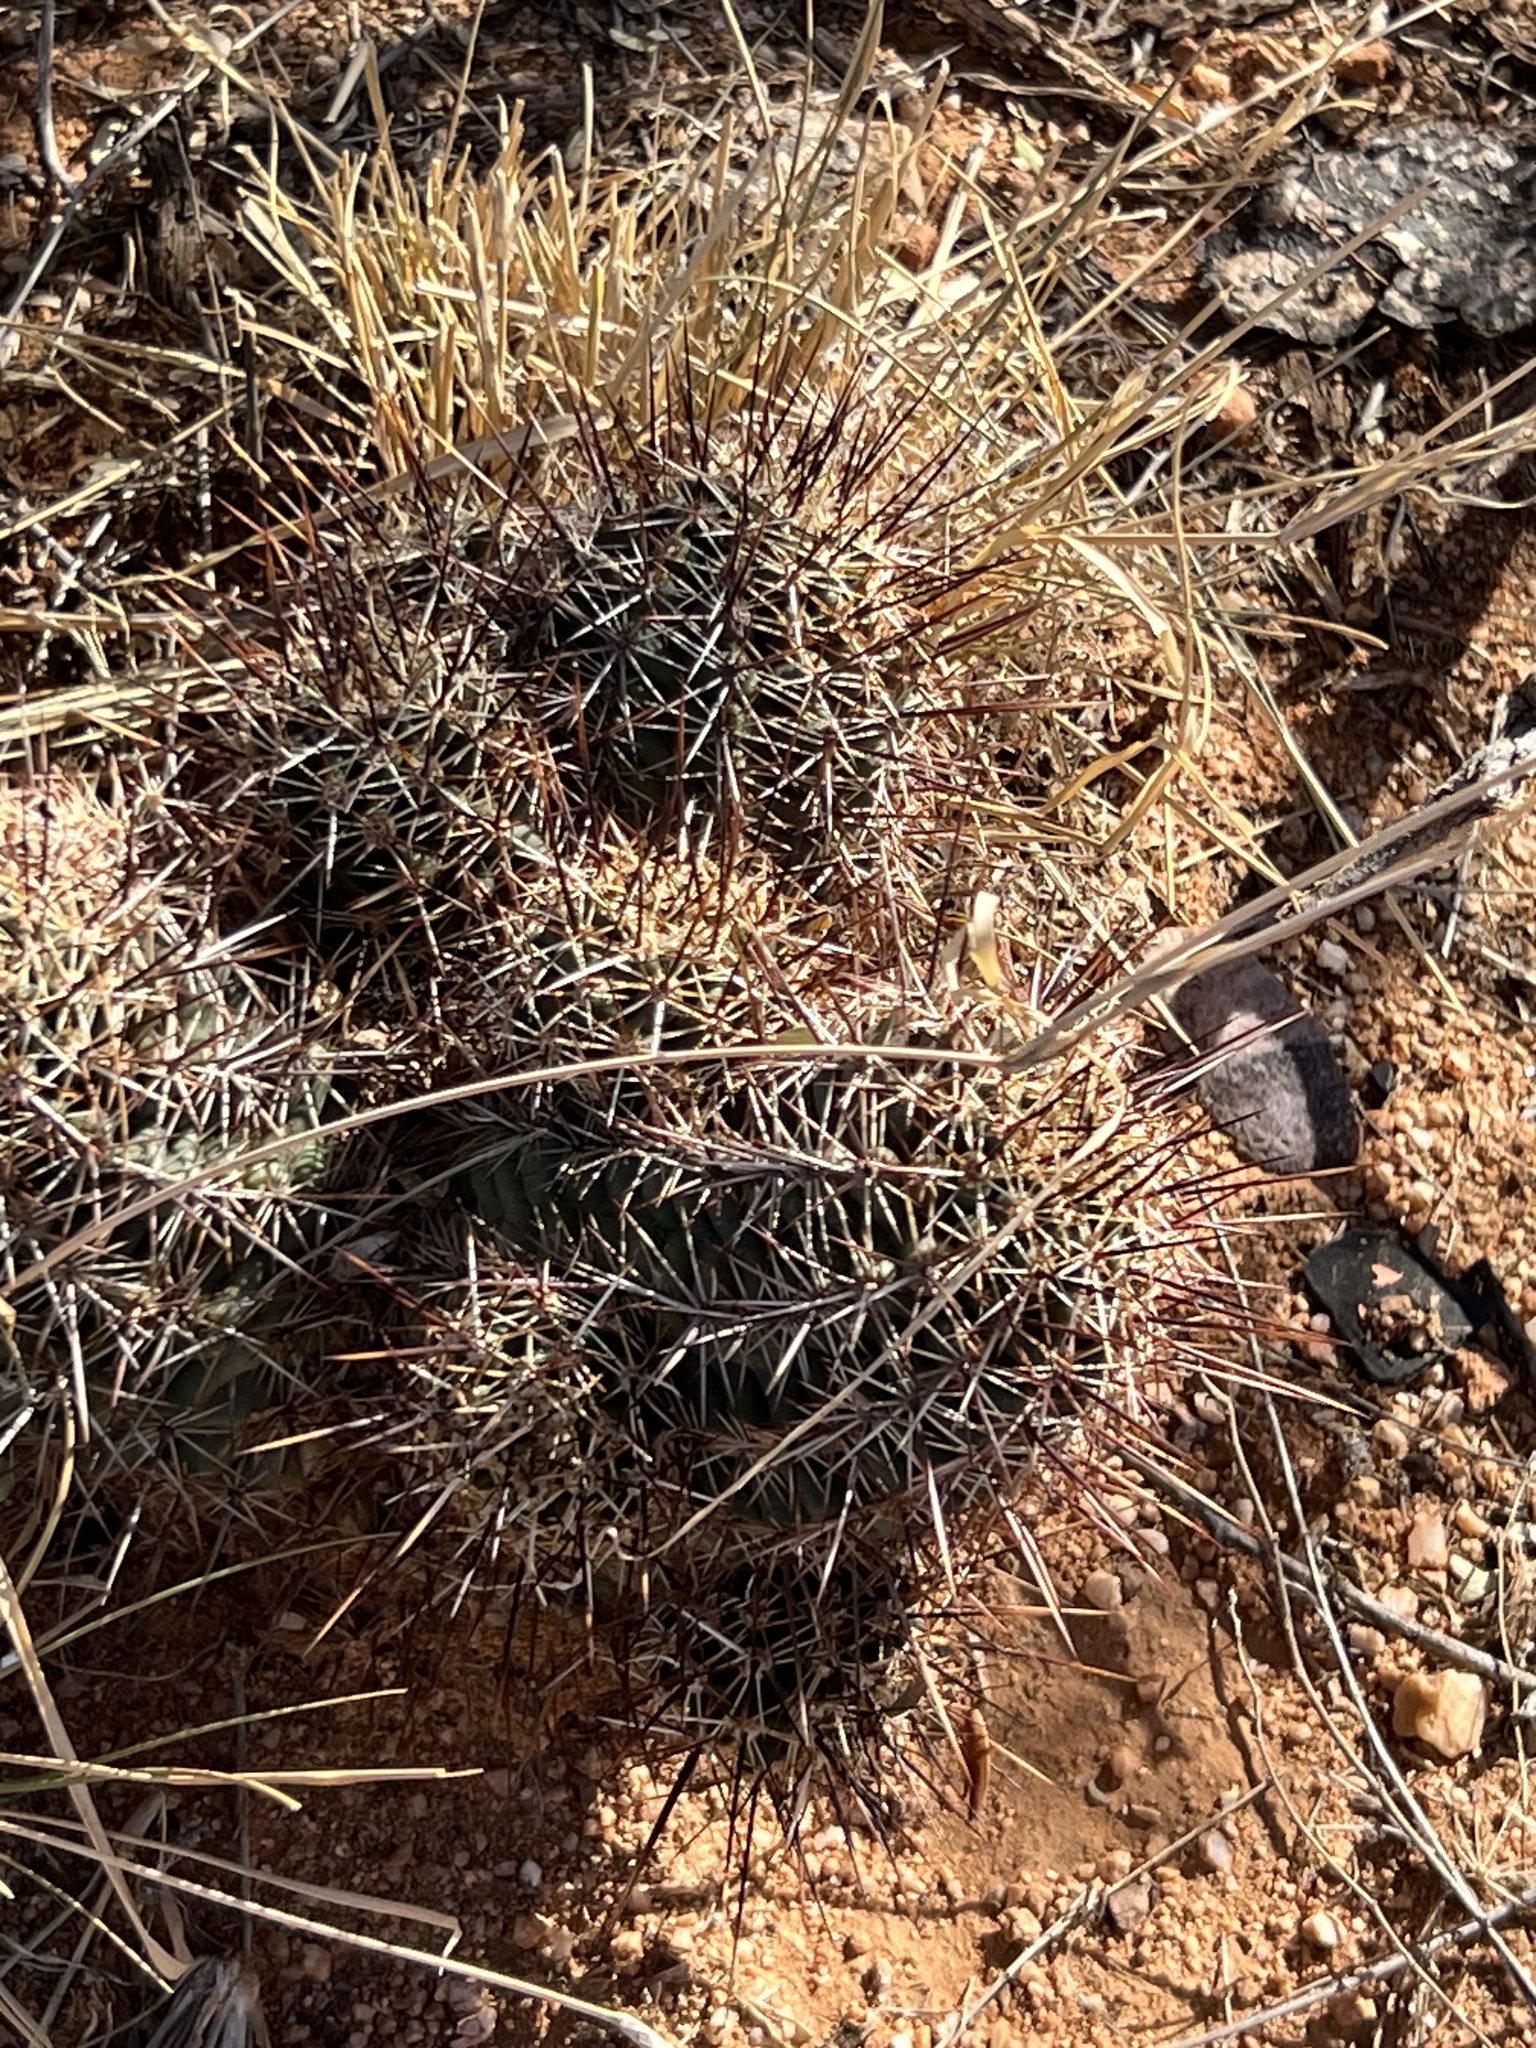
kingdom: Plantae
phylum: Tracheophyta
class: Magnoliopsida
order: Caryophyllales
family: Cactaceae
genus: Echinocereus
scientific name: Echinocereus fasciculatus
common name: Bundle hedgehog
